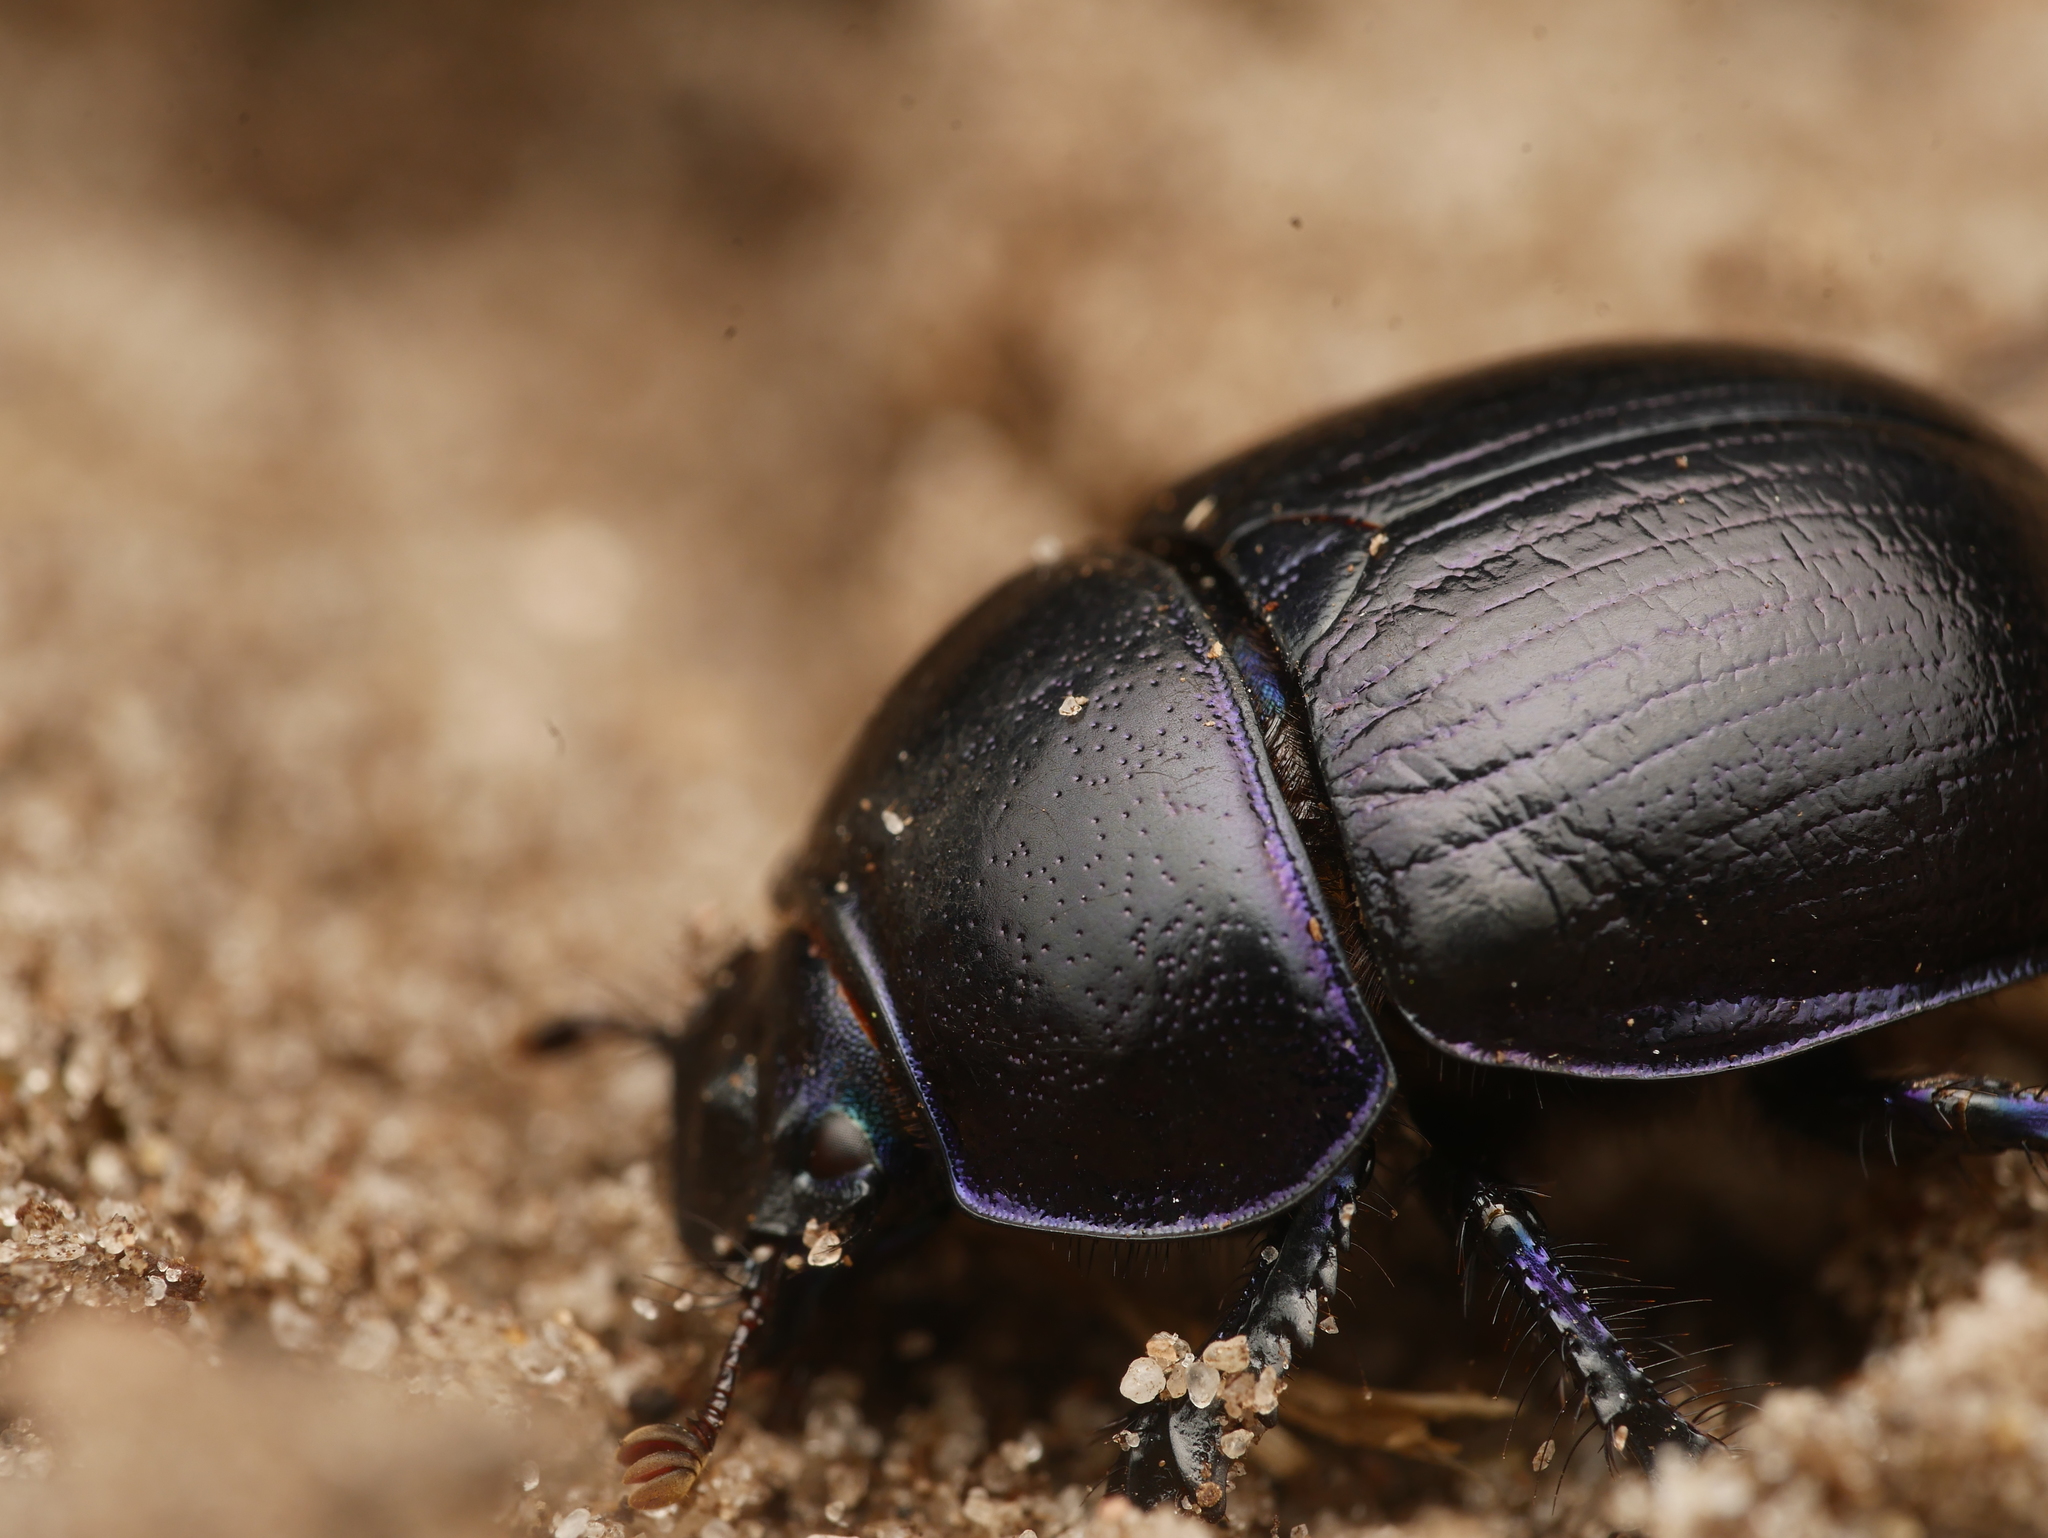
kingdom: Animalia
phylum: Arthropoda
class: Insecta
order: Coleoptera
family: Geotrupidae
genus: Anoplotrupes
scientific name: Anoplotrupes stercorosus
